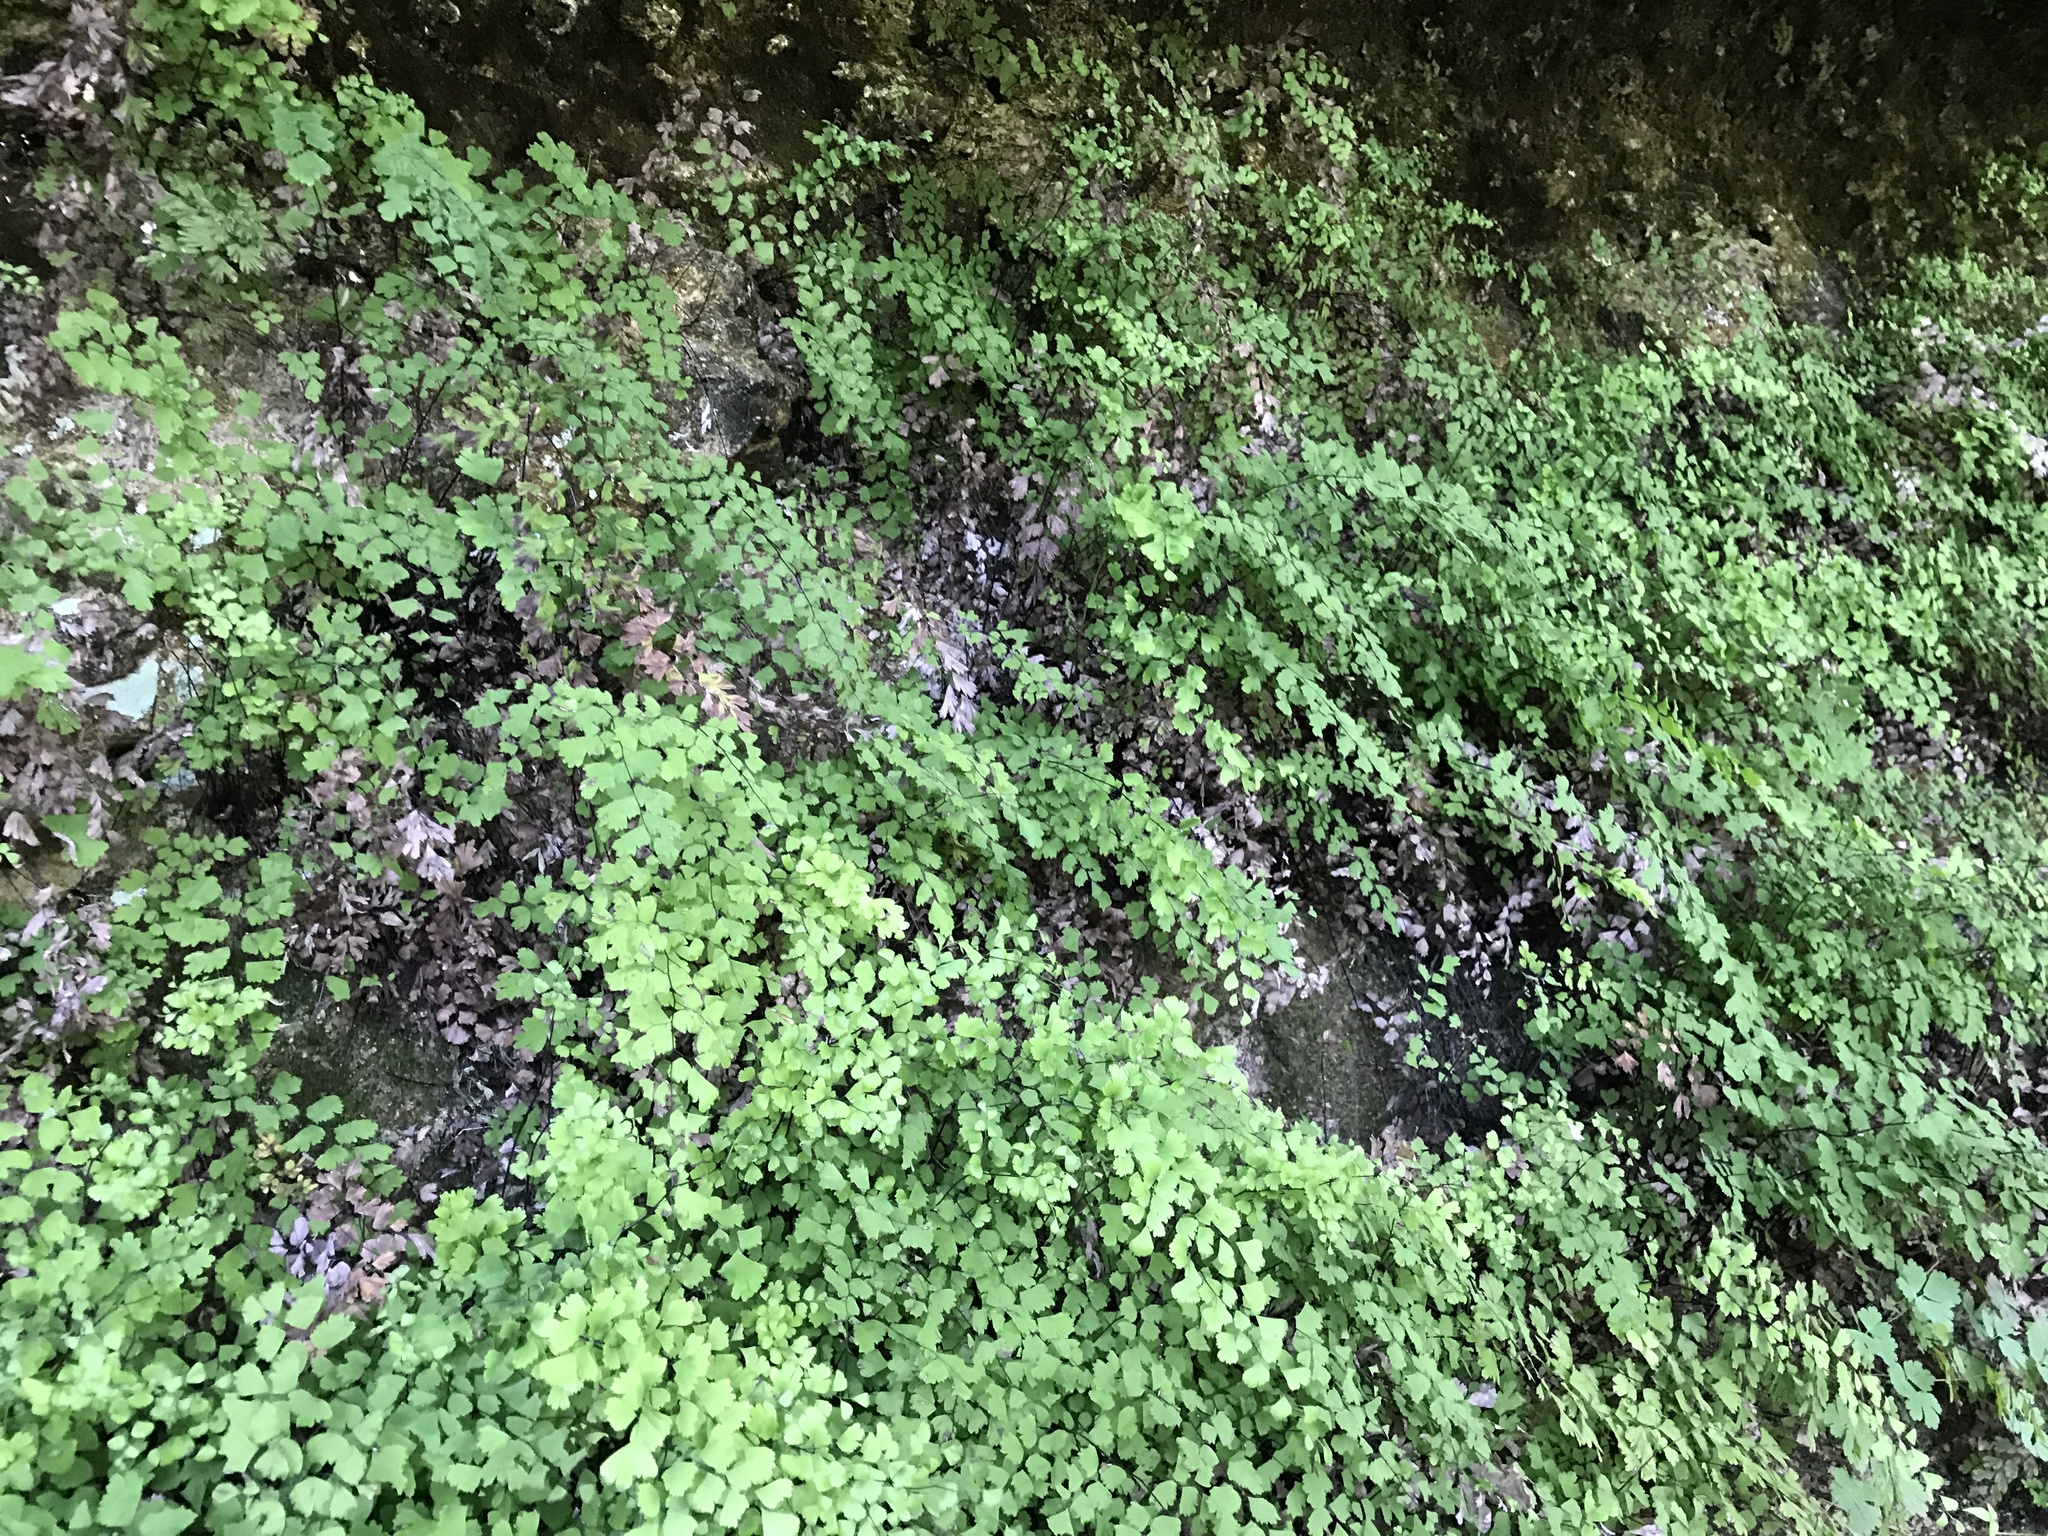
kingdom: Plantae
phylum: Tracheophyta
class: Polypodiopsida
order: Polypodiales
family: Pteridaceae
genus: Adiantum
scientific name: Adiantum capillus-veneris
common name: Maidenhair fern
